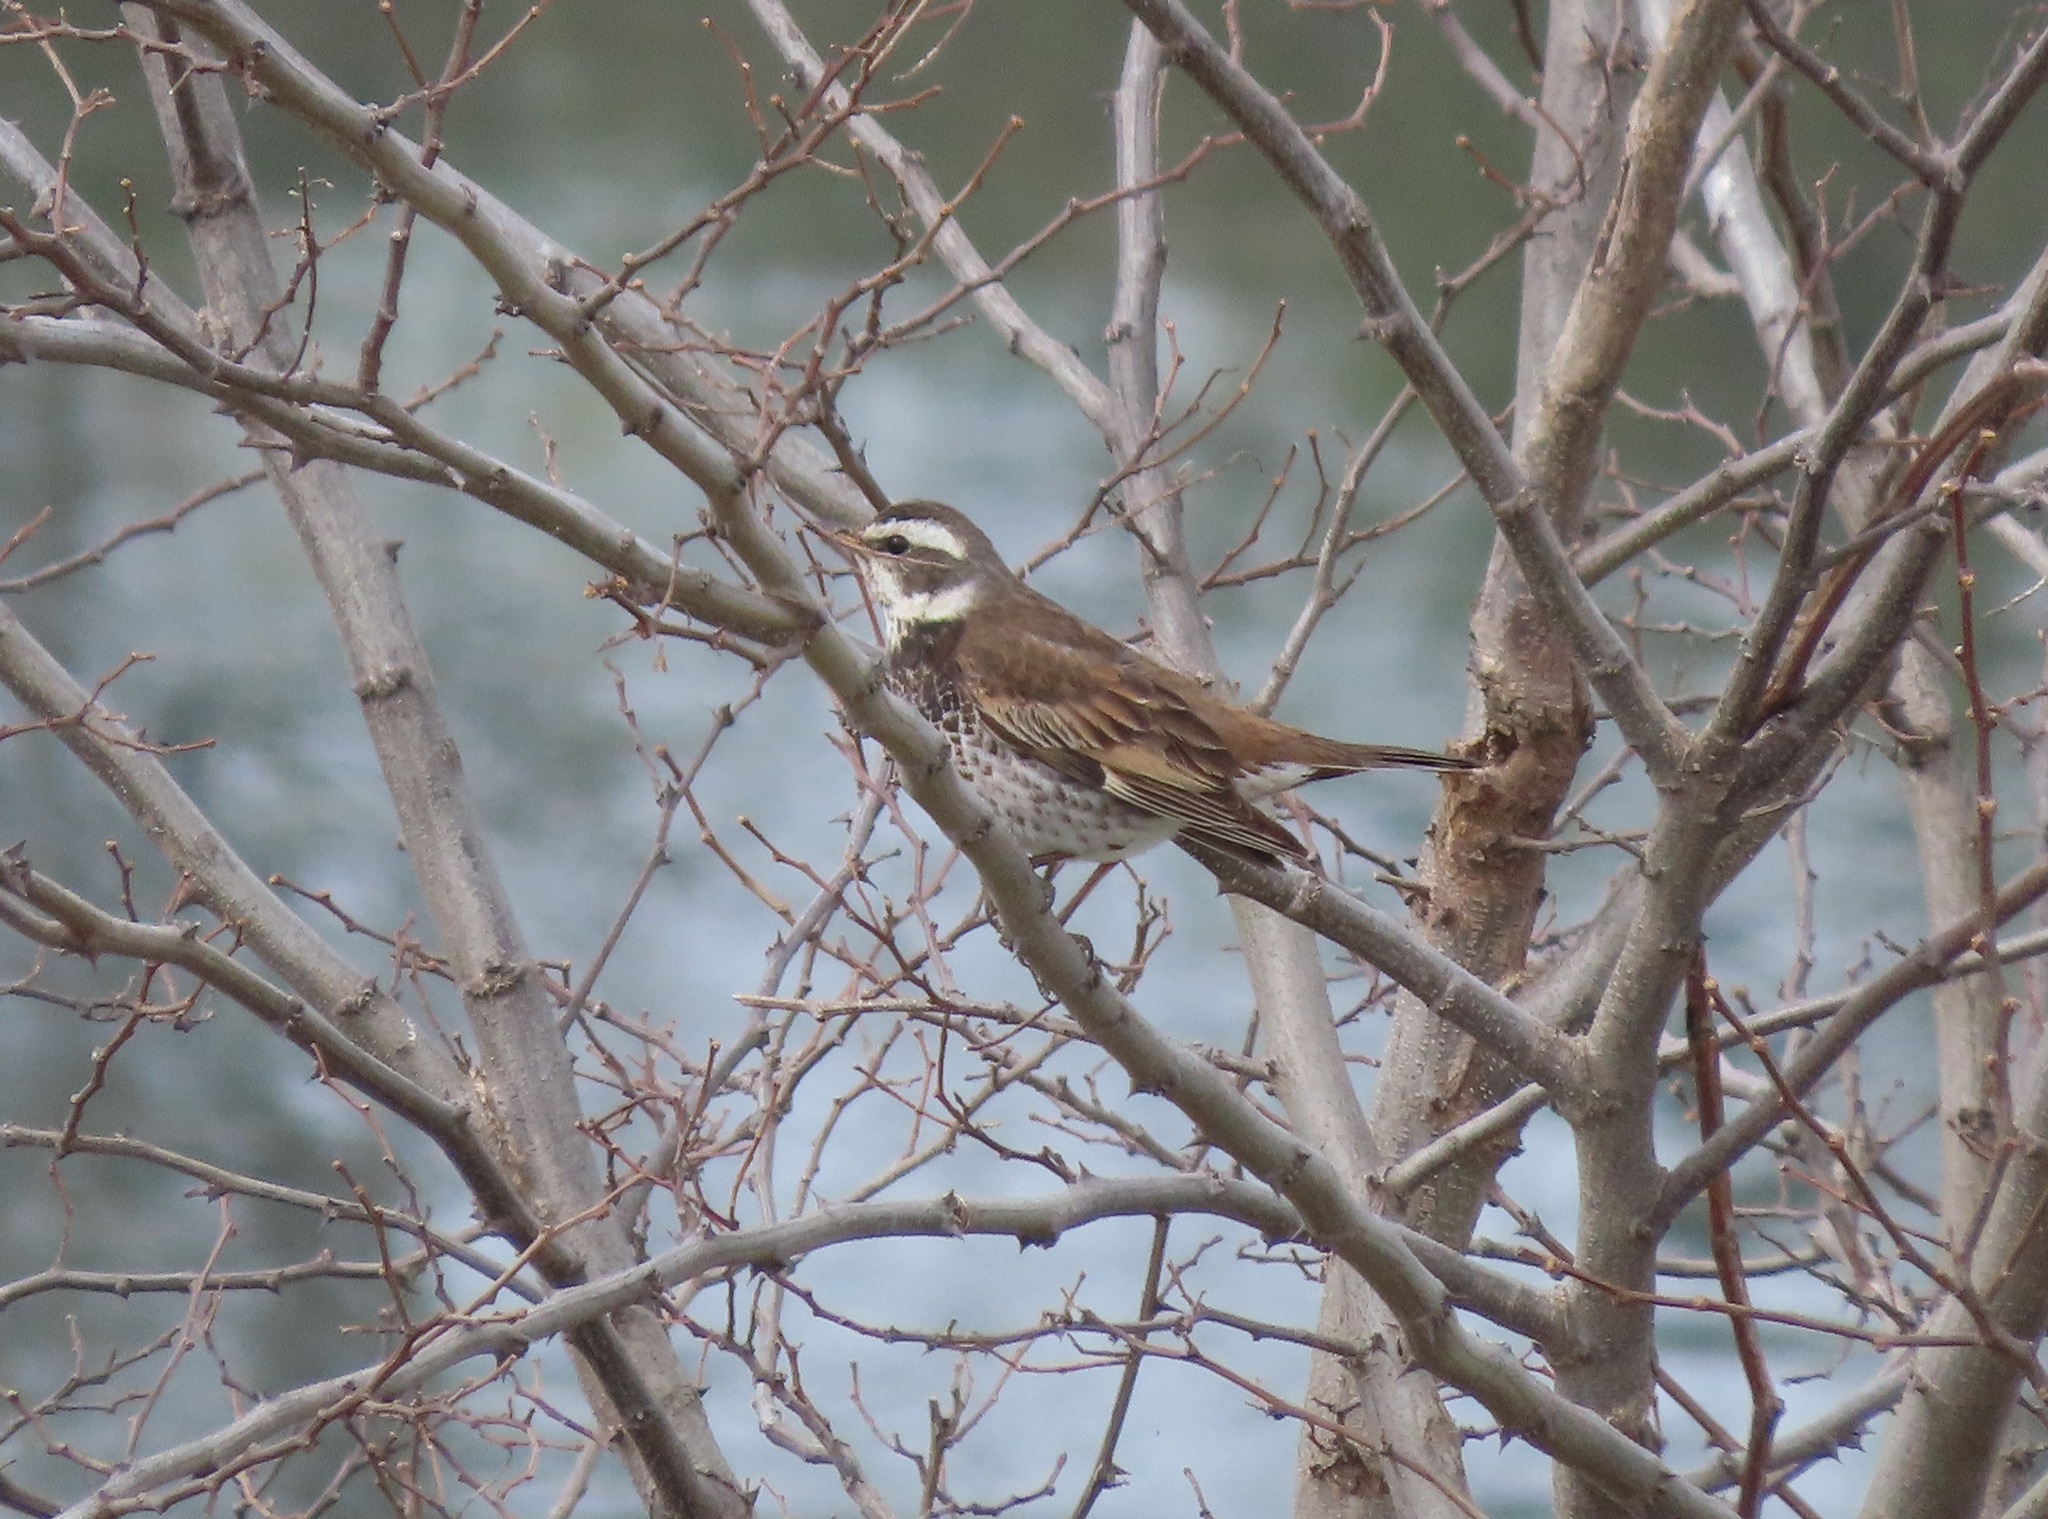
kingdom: Animalia
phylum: Chordata
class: Aves
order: Passeriformes
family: Turdidae
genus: Turdus
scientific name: Turdus eunomus
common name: Dusky thrush
